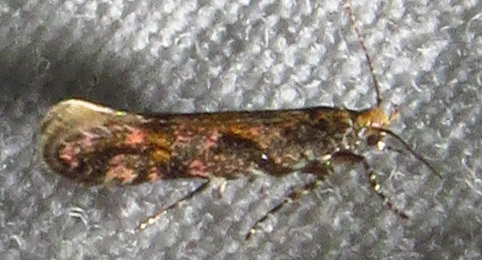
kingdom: Animalia
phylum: Arthropoda
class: Insecta
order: Lepidoptera
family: Gelechiidae
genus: Aristotelia
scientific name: Aristotelia roseosuffusella
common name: Pink-washed aristotelia moth
